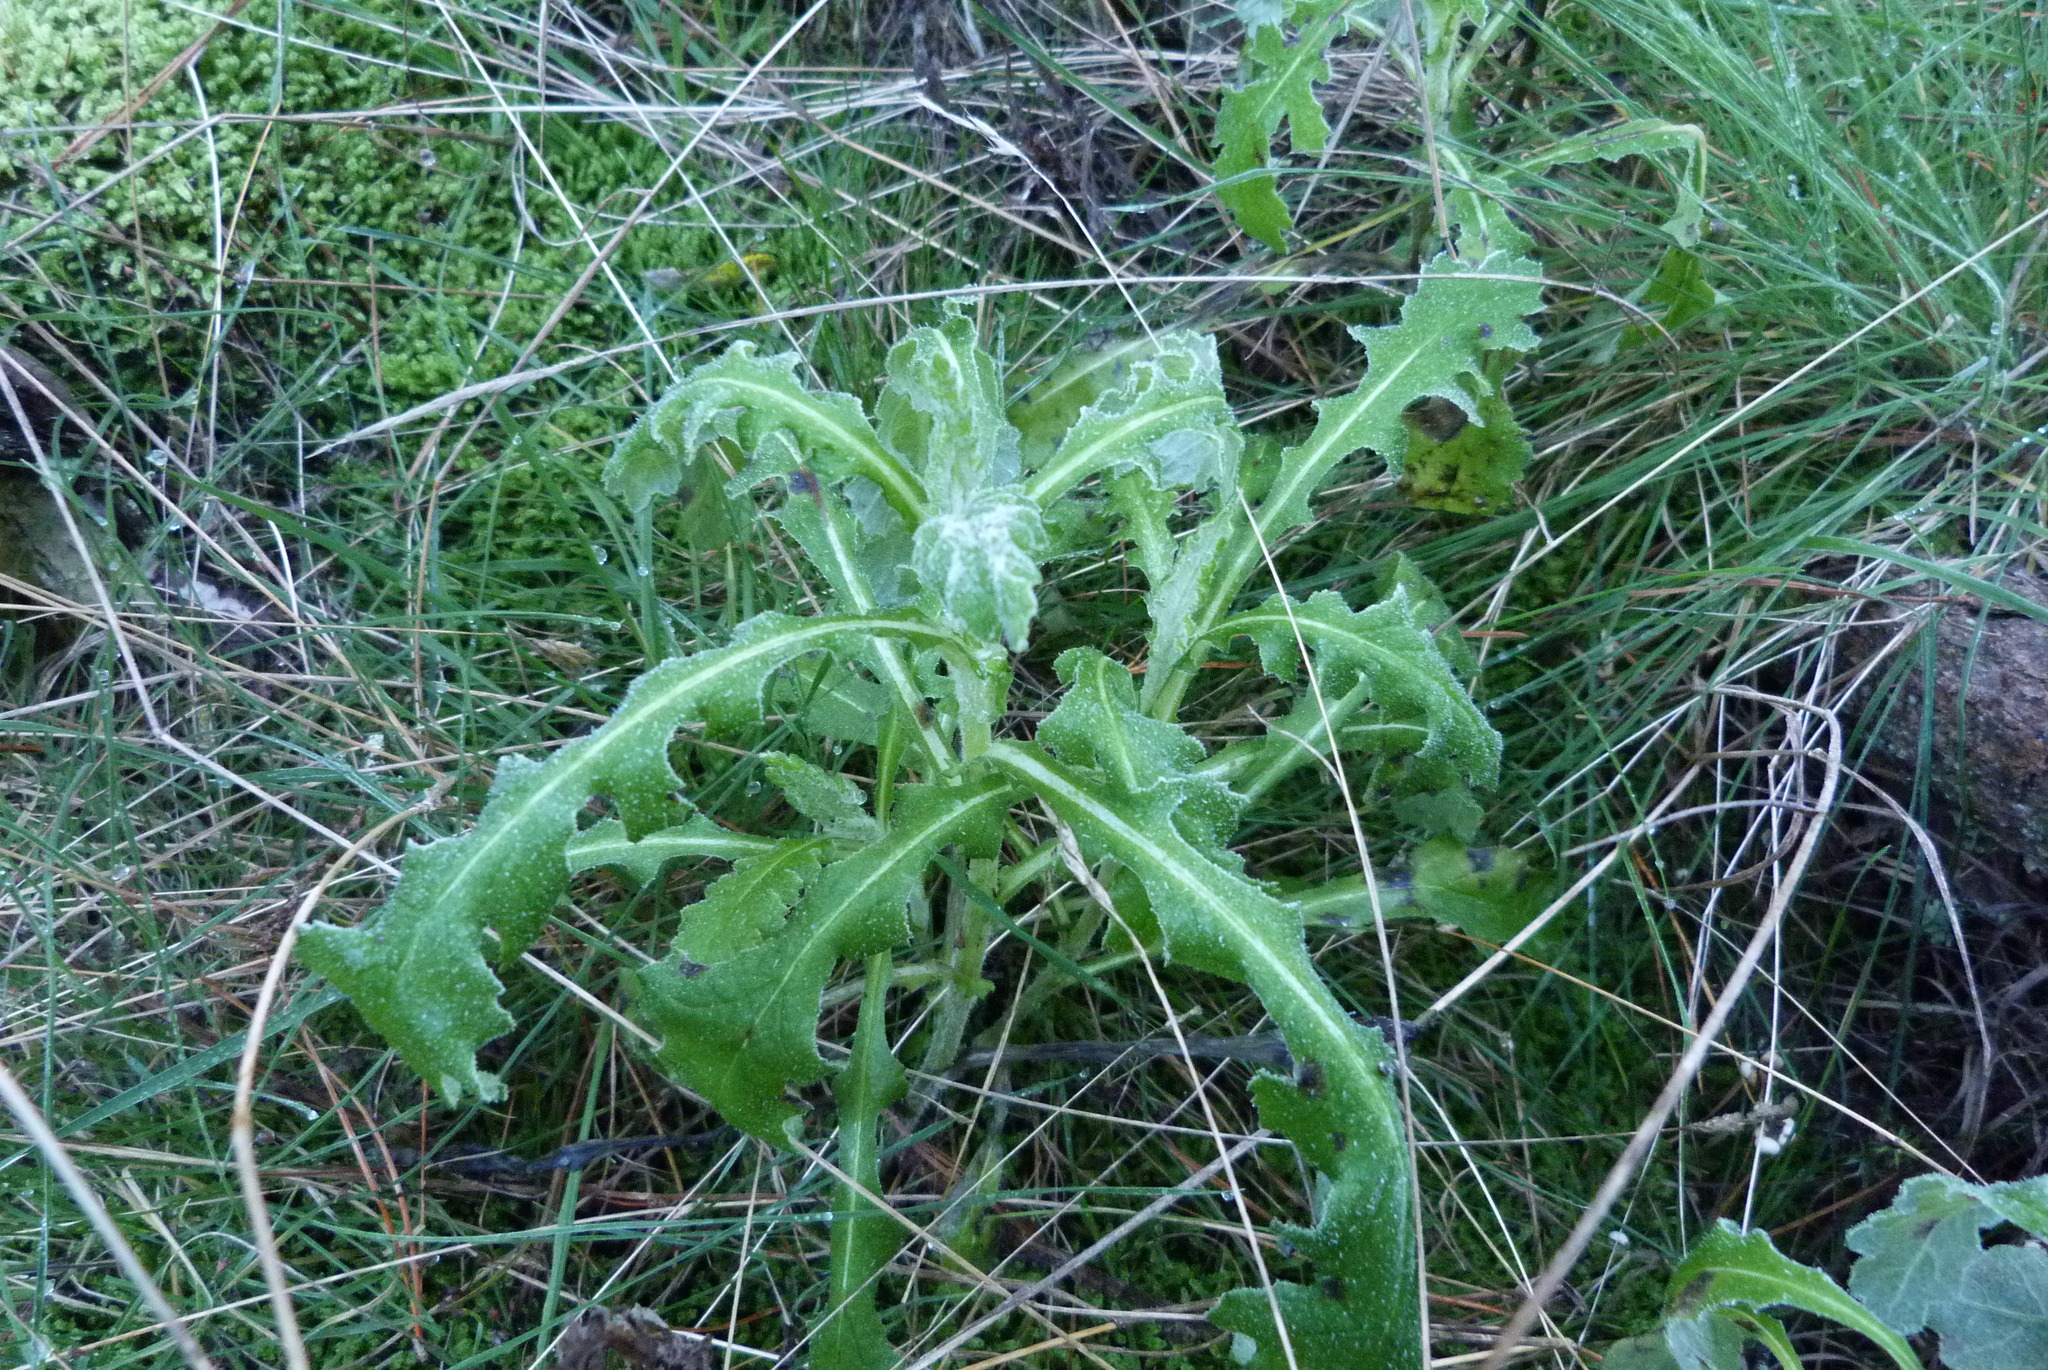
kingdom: Plantae
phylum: Tracheophyta
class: Magnoliopsida
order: Asterales
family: Asteraceae
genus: Senecio
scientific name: Senecio glomeratus
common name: Cutleaf burnweed
